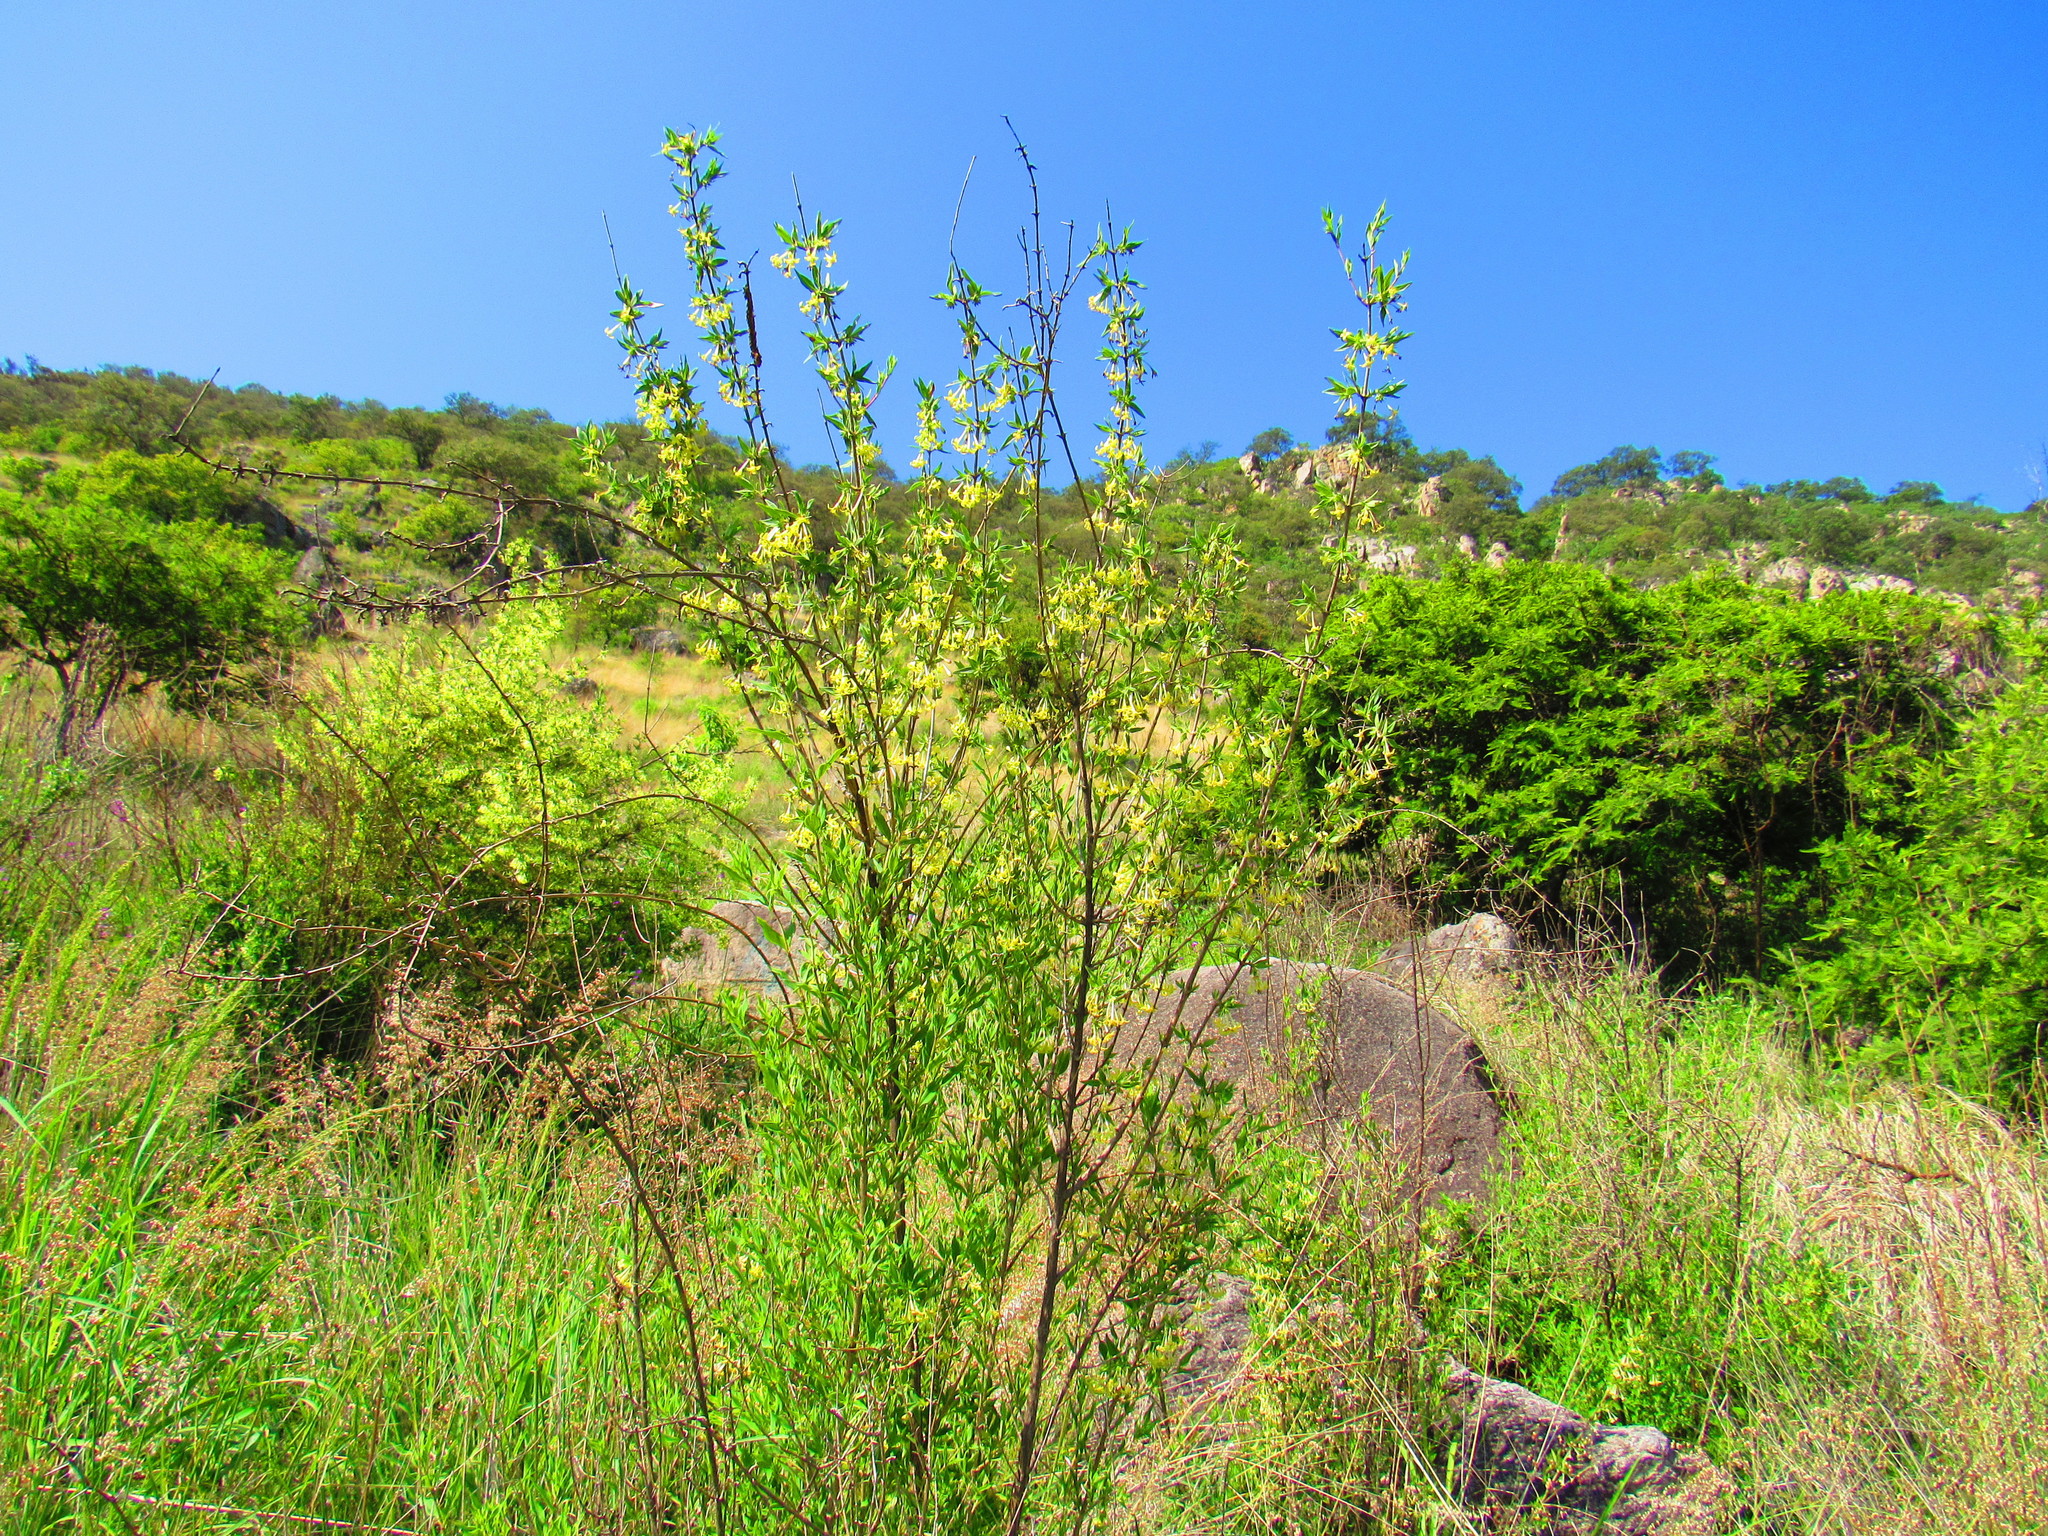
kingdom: Plantae
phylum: Tracheophyta
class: Magnoliopsida
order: Gentianales
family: Rubiaceae
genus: Bouvardia
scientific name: Bouvardia longiflora
